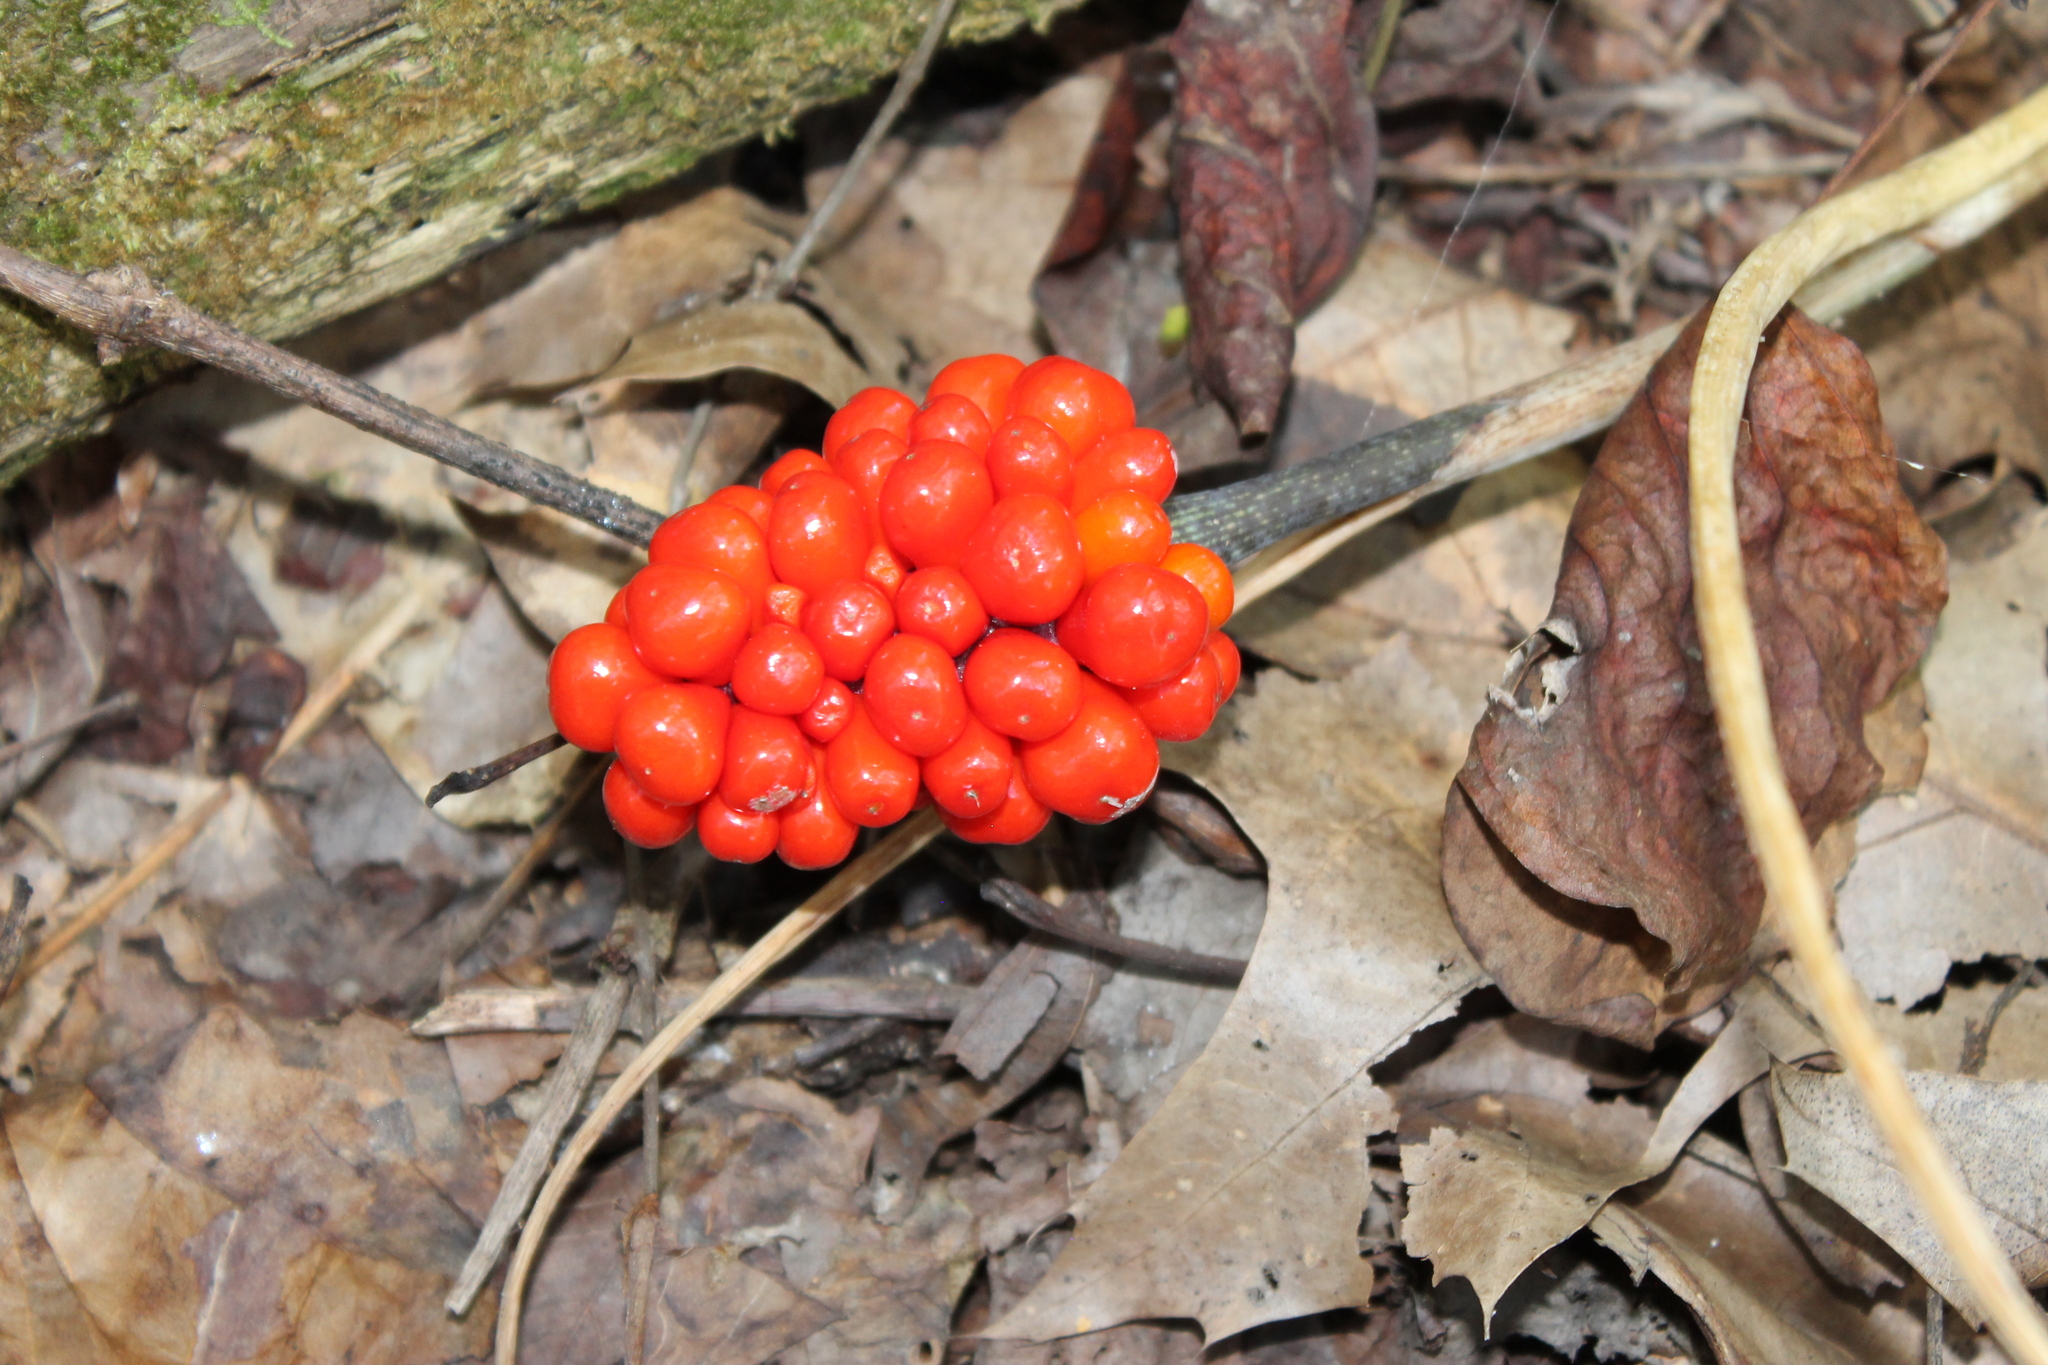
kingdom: Plantae
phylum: Tracheophyta
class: Liliopsida
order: Alismatales
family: Araceae
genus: Arisaema
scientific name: Arisaema triphyllum
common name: Jack-in-the-pulpit
